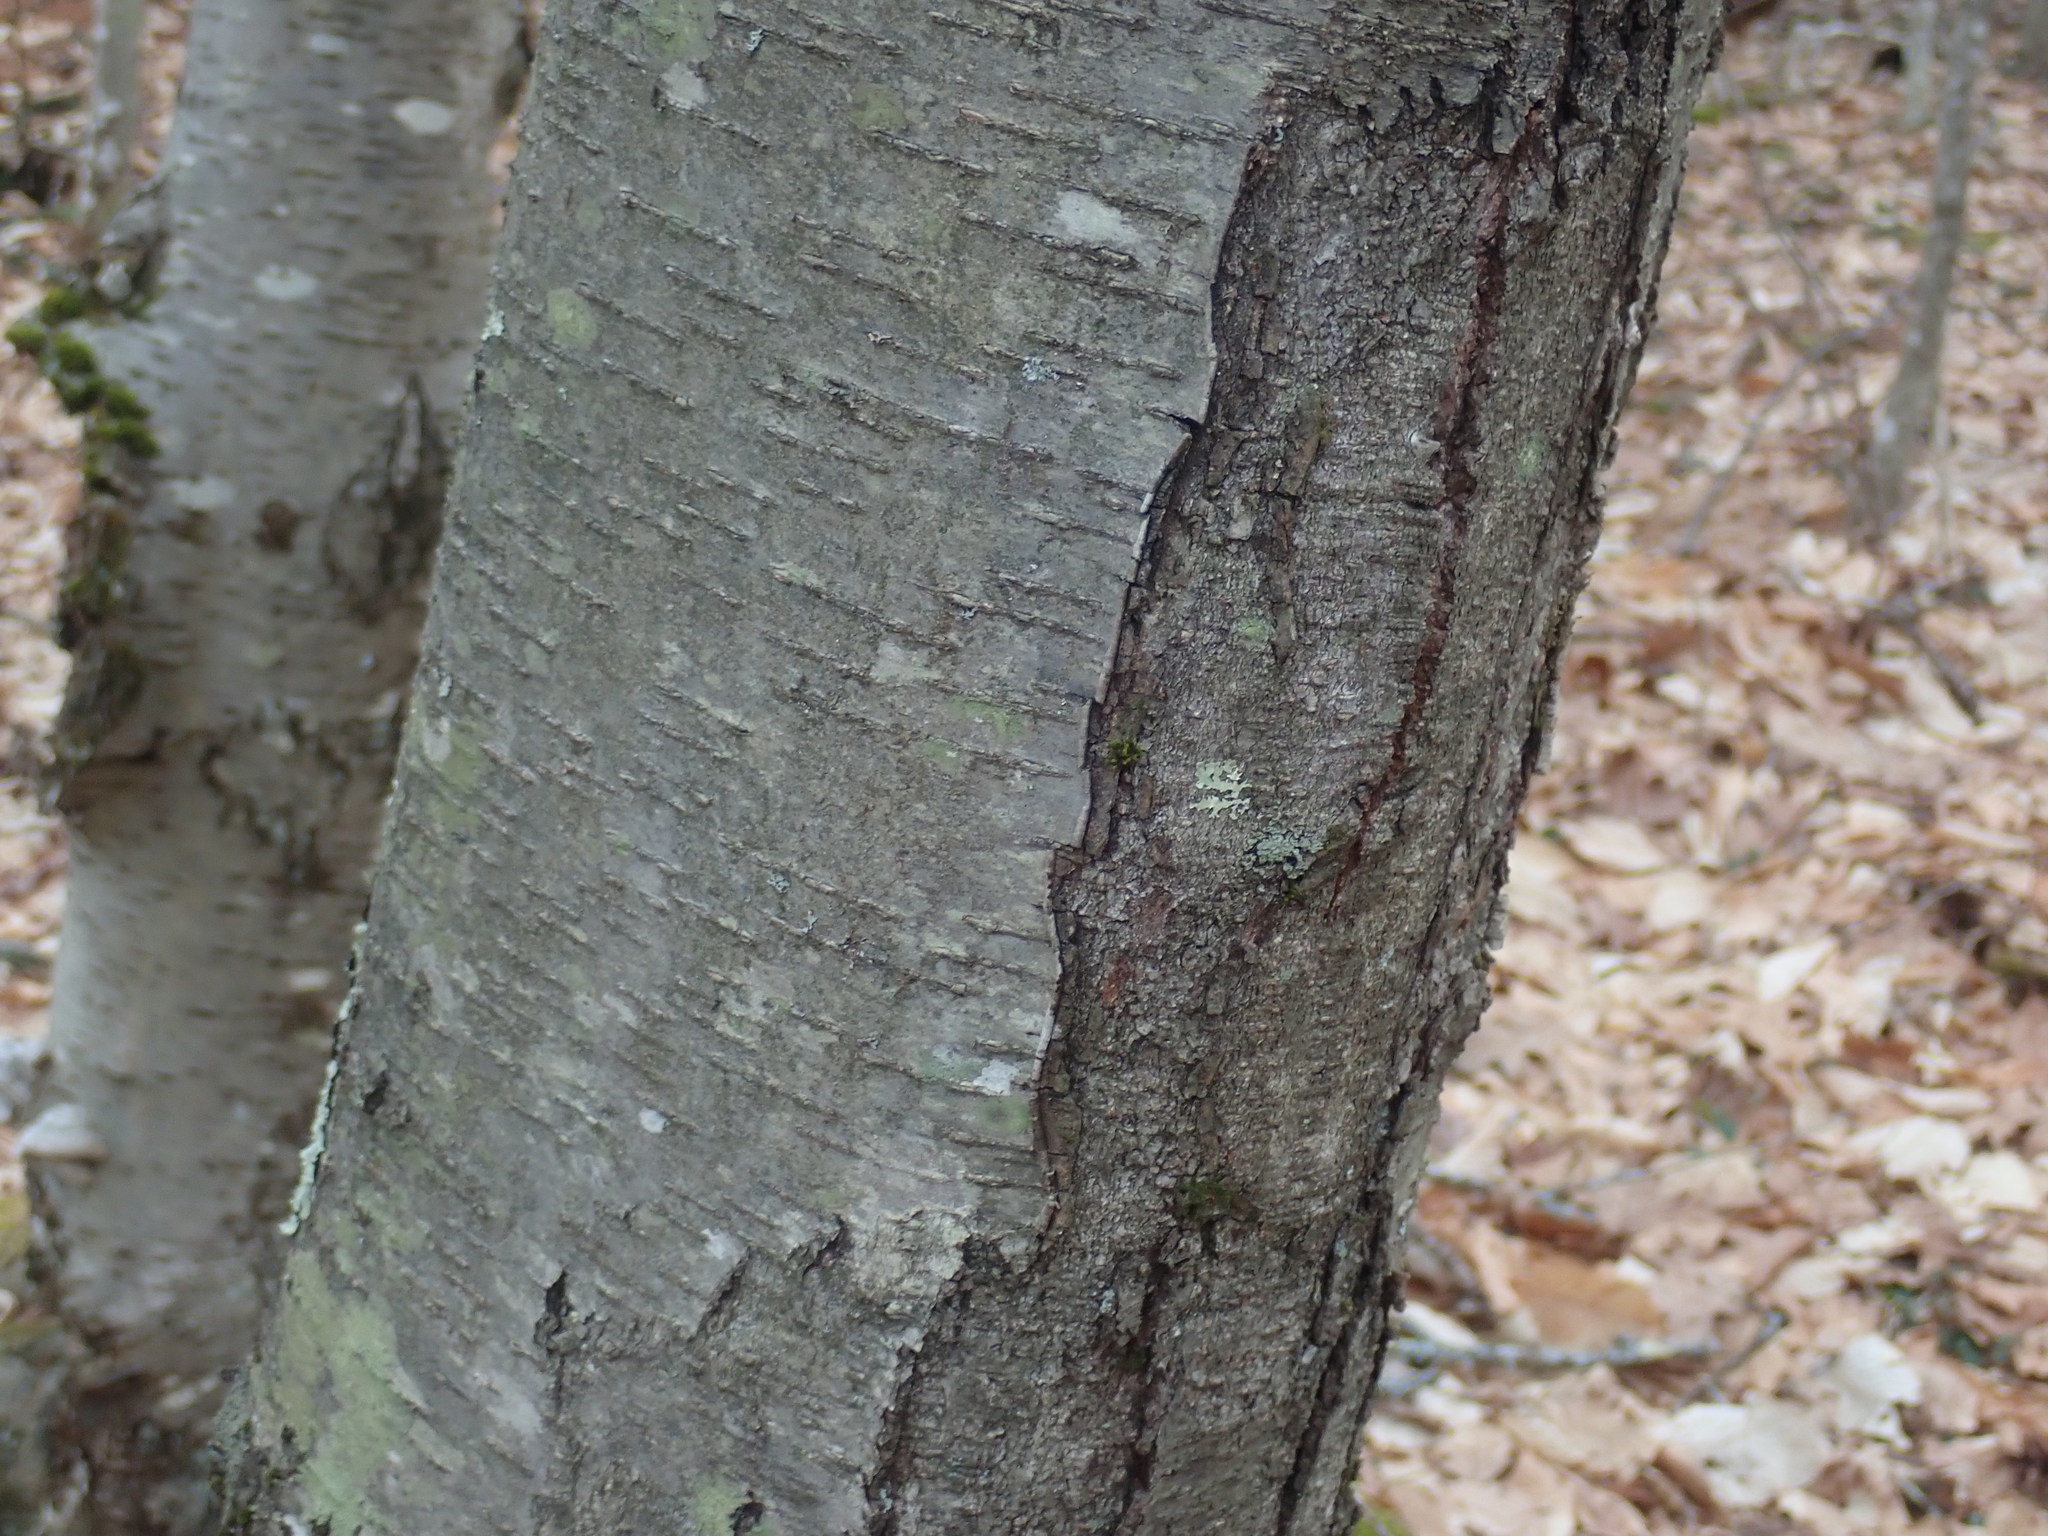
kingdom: Plantae
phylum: Tracheophyta
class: Magnoliopsida
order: Fagales
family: Betulaceae
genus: Betula
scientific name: Betula lenta
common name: Black birch
